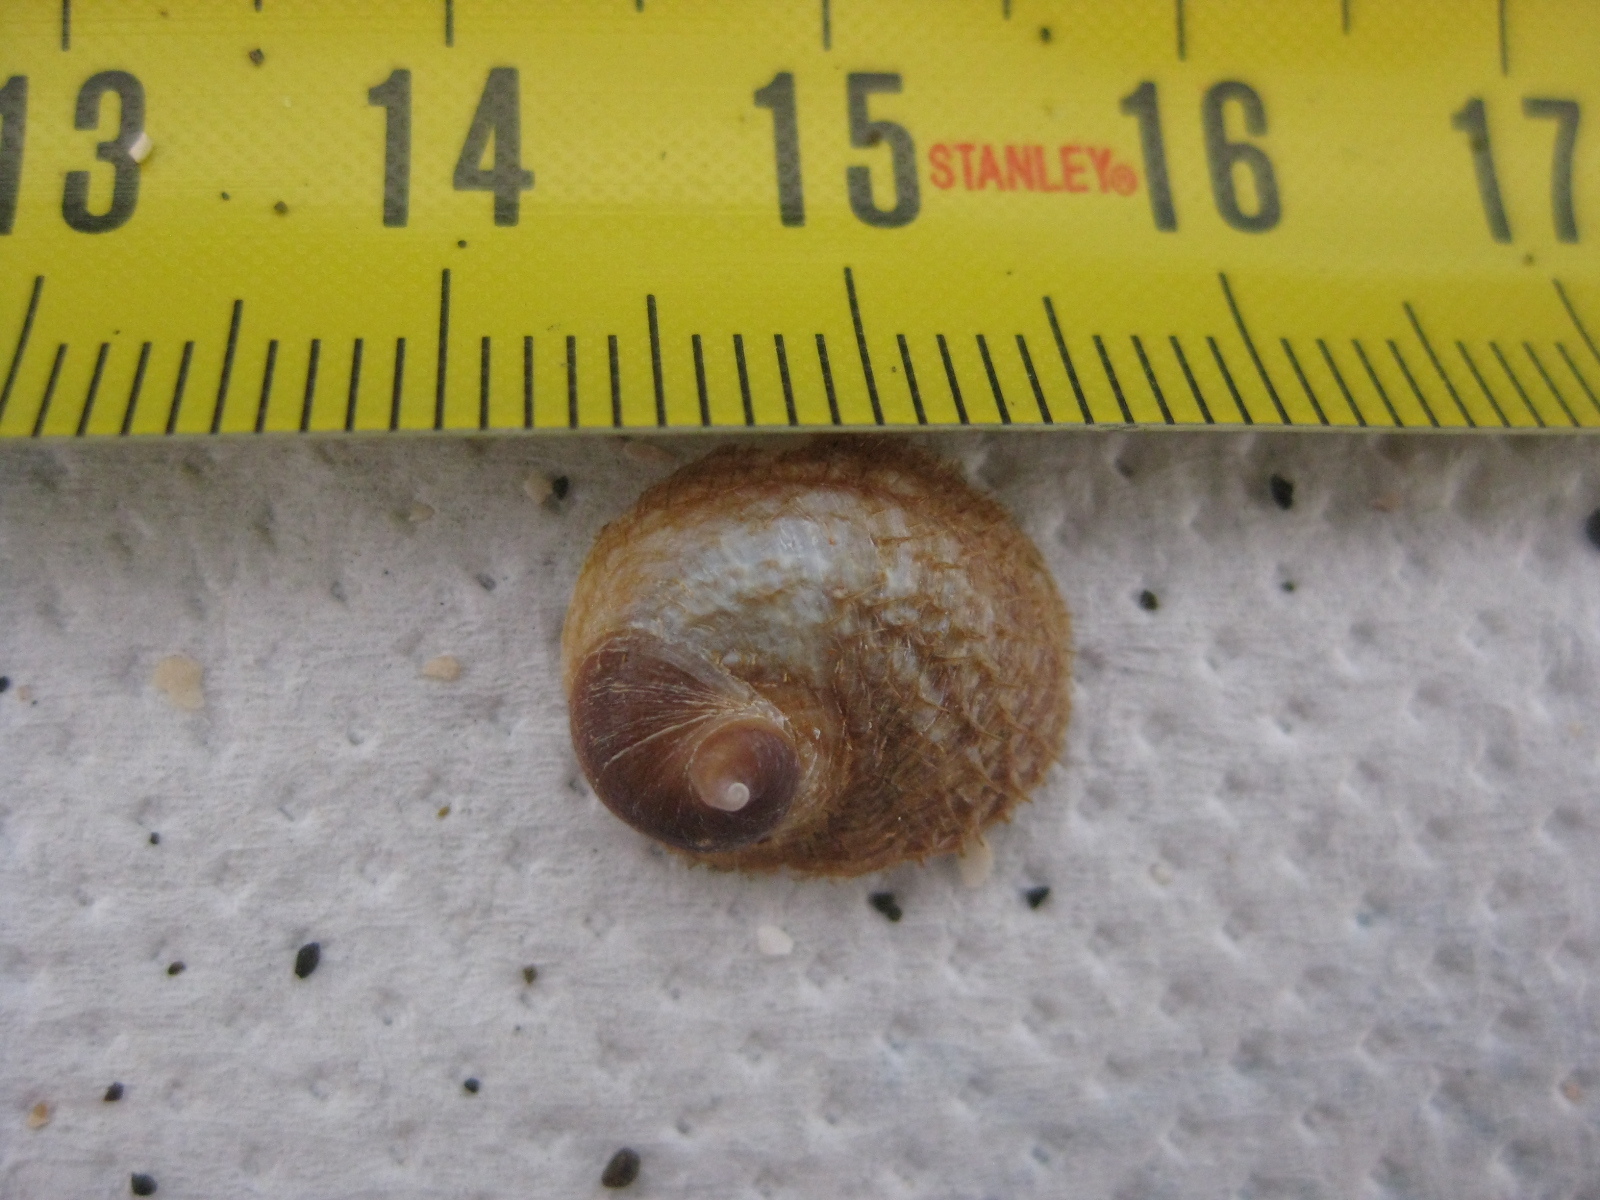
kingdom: Animalia
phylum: Mollusca
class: Gastropoda
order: Littorinimorpha
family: Calyptraeidae
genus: Sigapatella
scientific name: Sigapatella novaezelandiae
